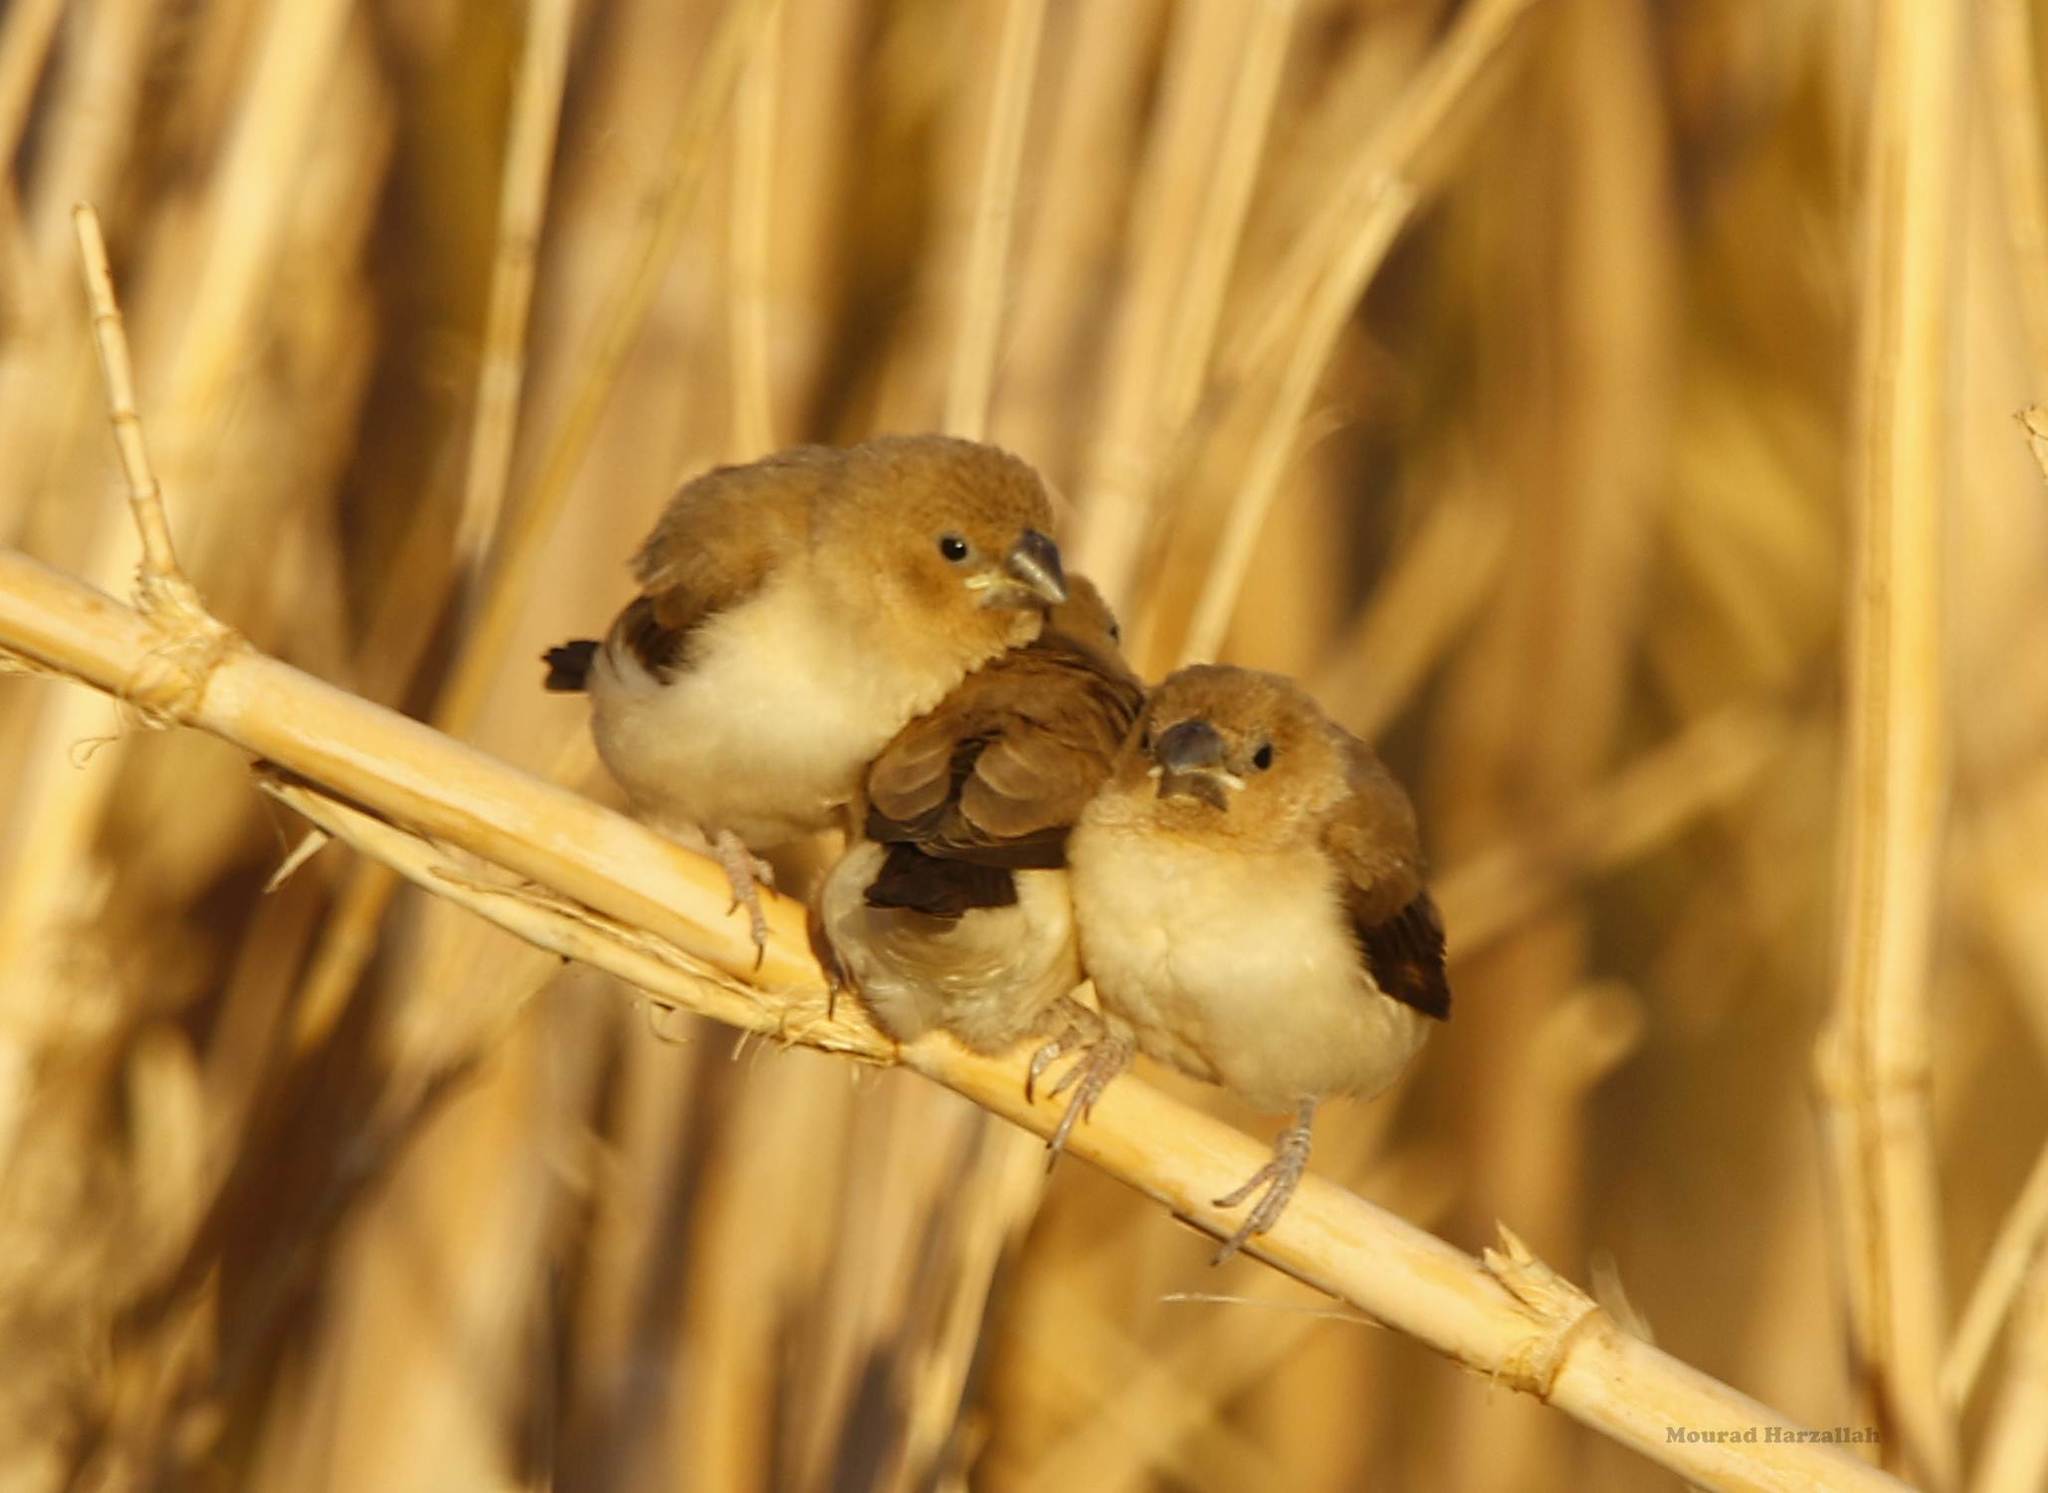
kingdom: Animalia
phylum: Chordata
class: Aves
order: Passeriformes
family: Estrildidae
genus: Euodice
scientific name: Euodice cantans
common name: African silverbill
